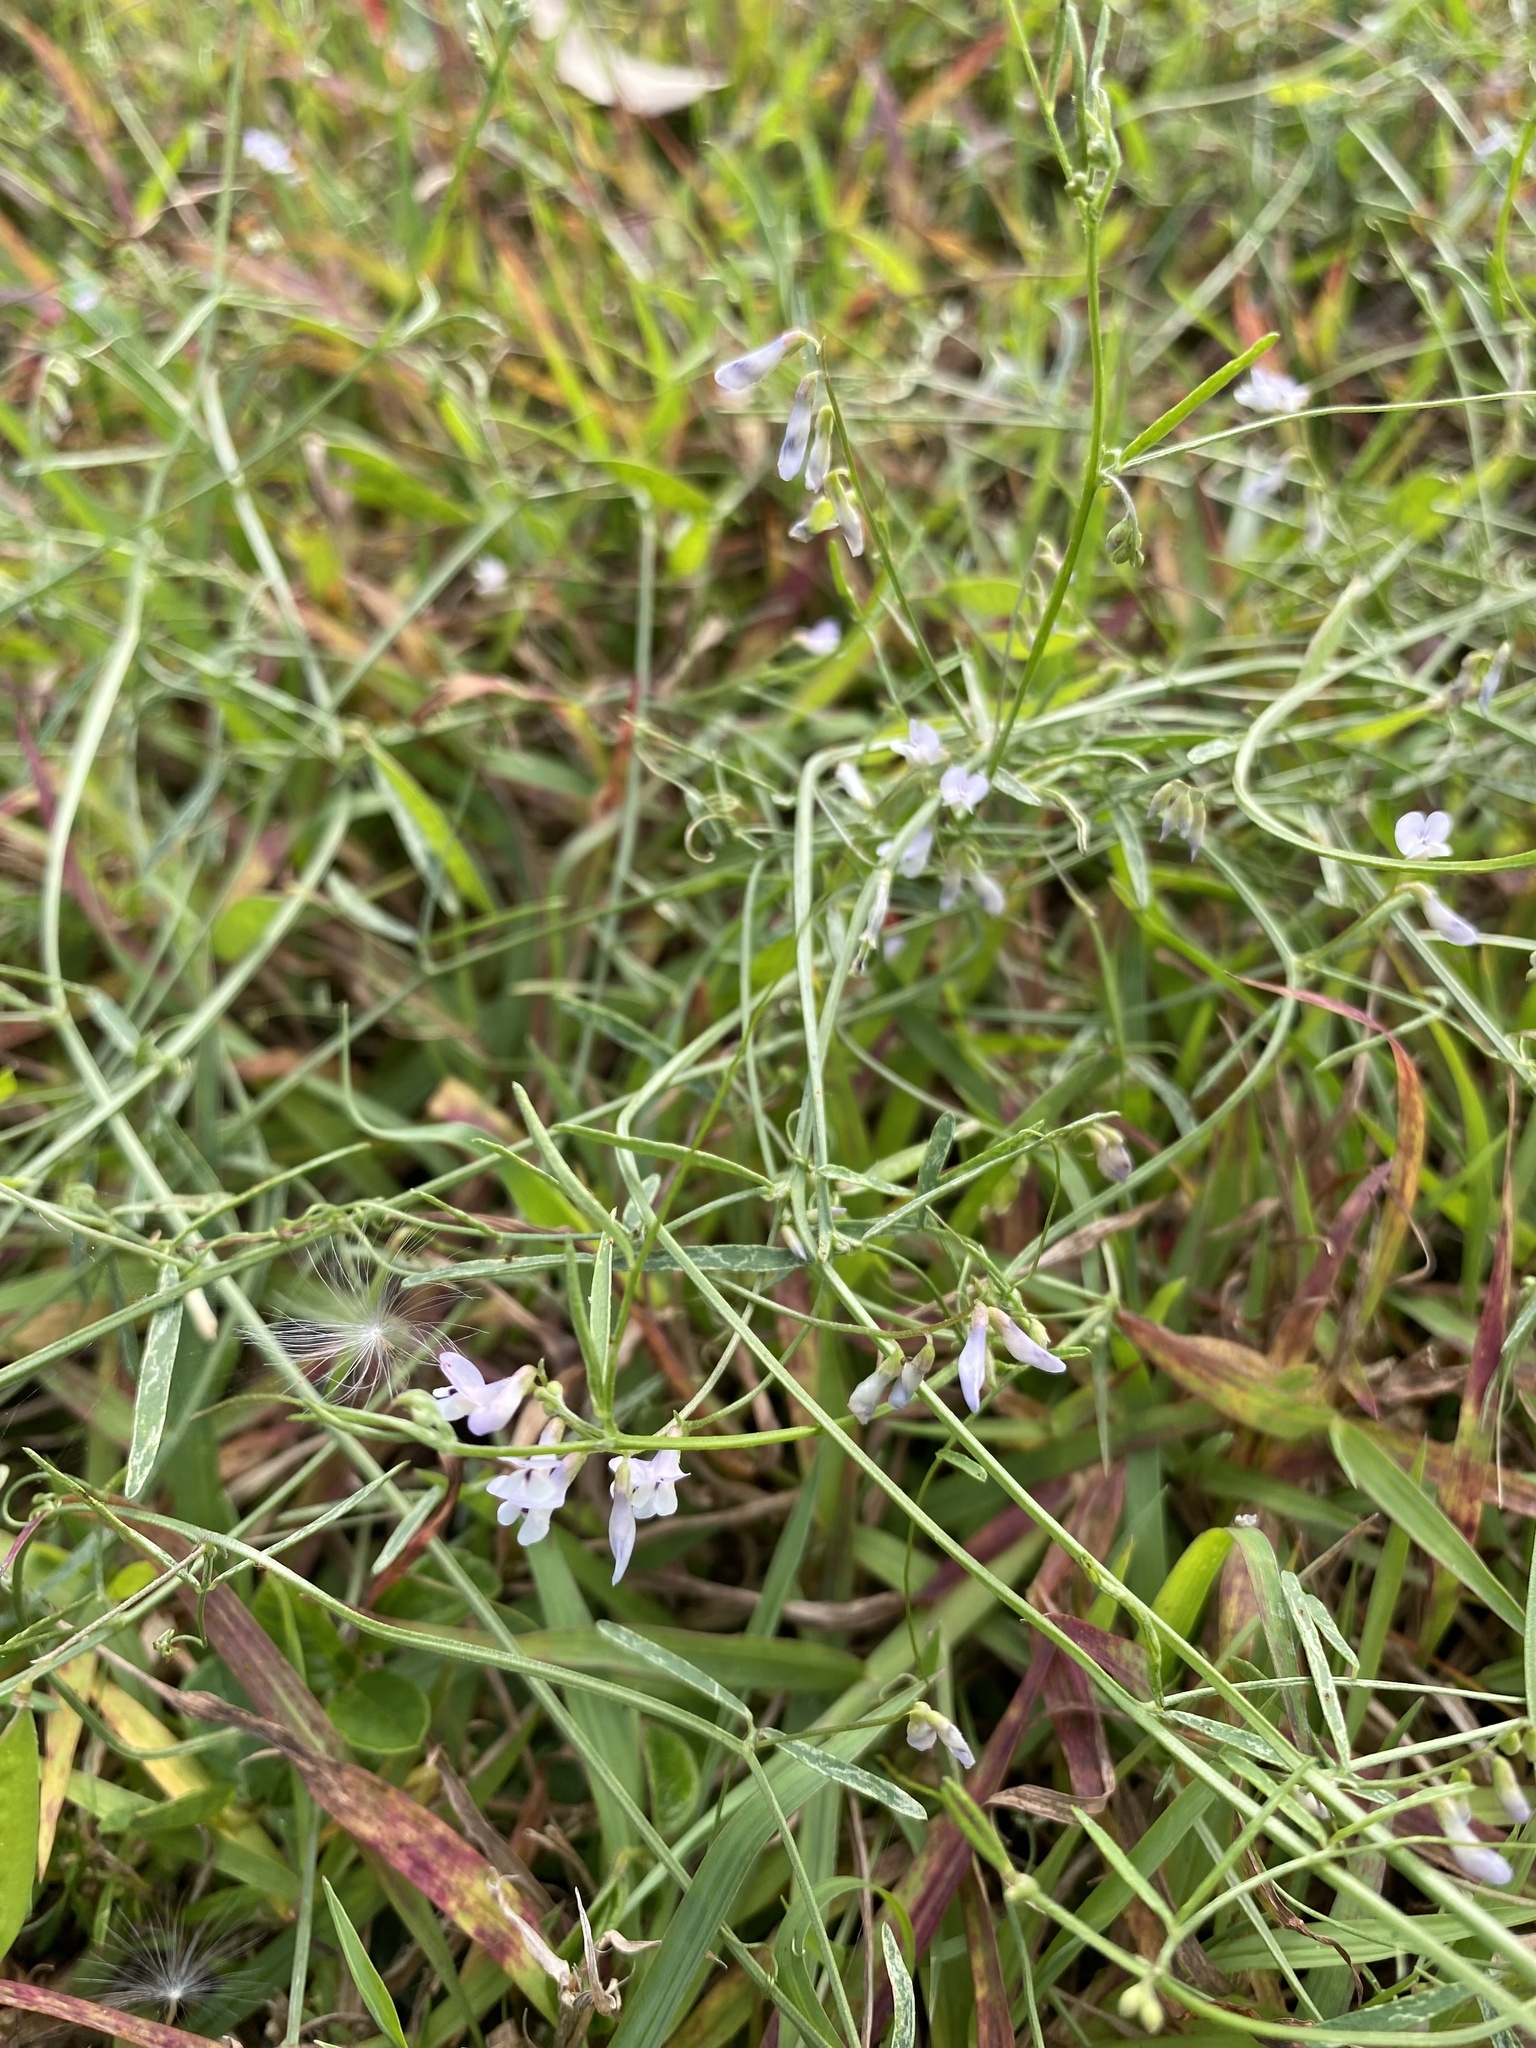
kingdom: Plantae
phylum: Tracheophyta
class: Magnoliopsida
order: Fabales
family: Fabaceae
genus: Vicia
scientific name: Vicia acutifolia
